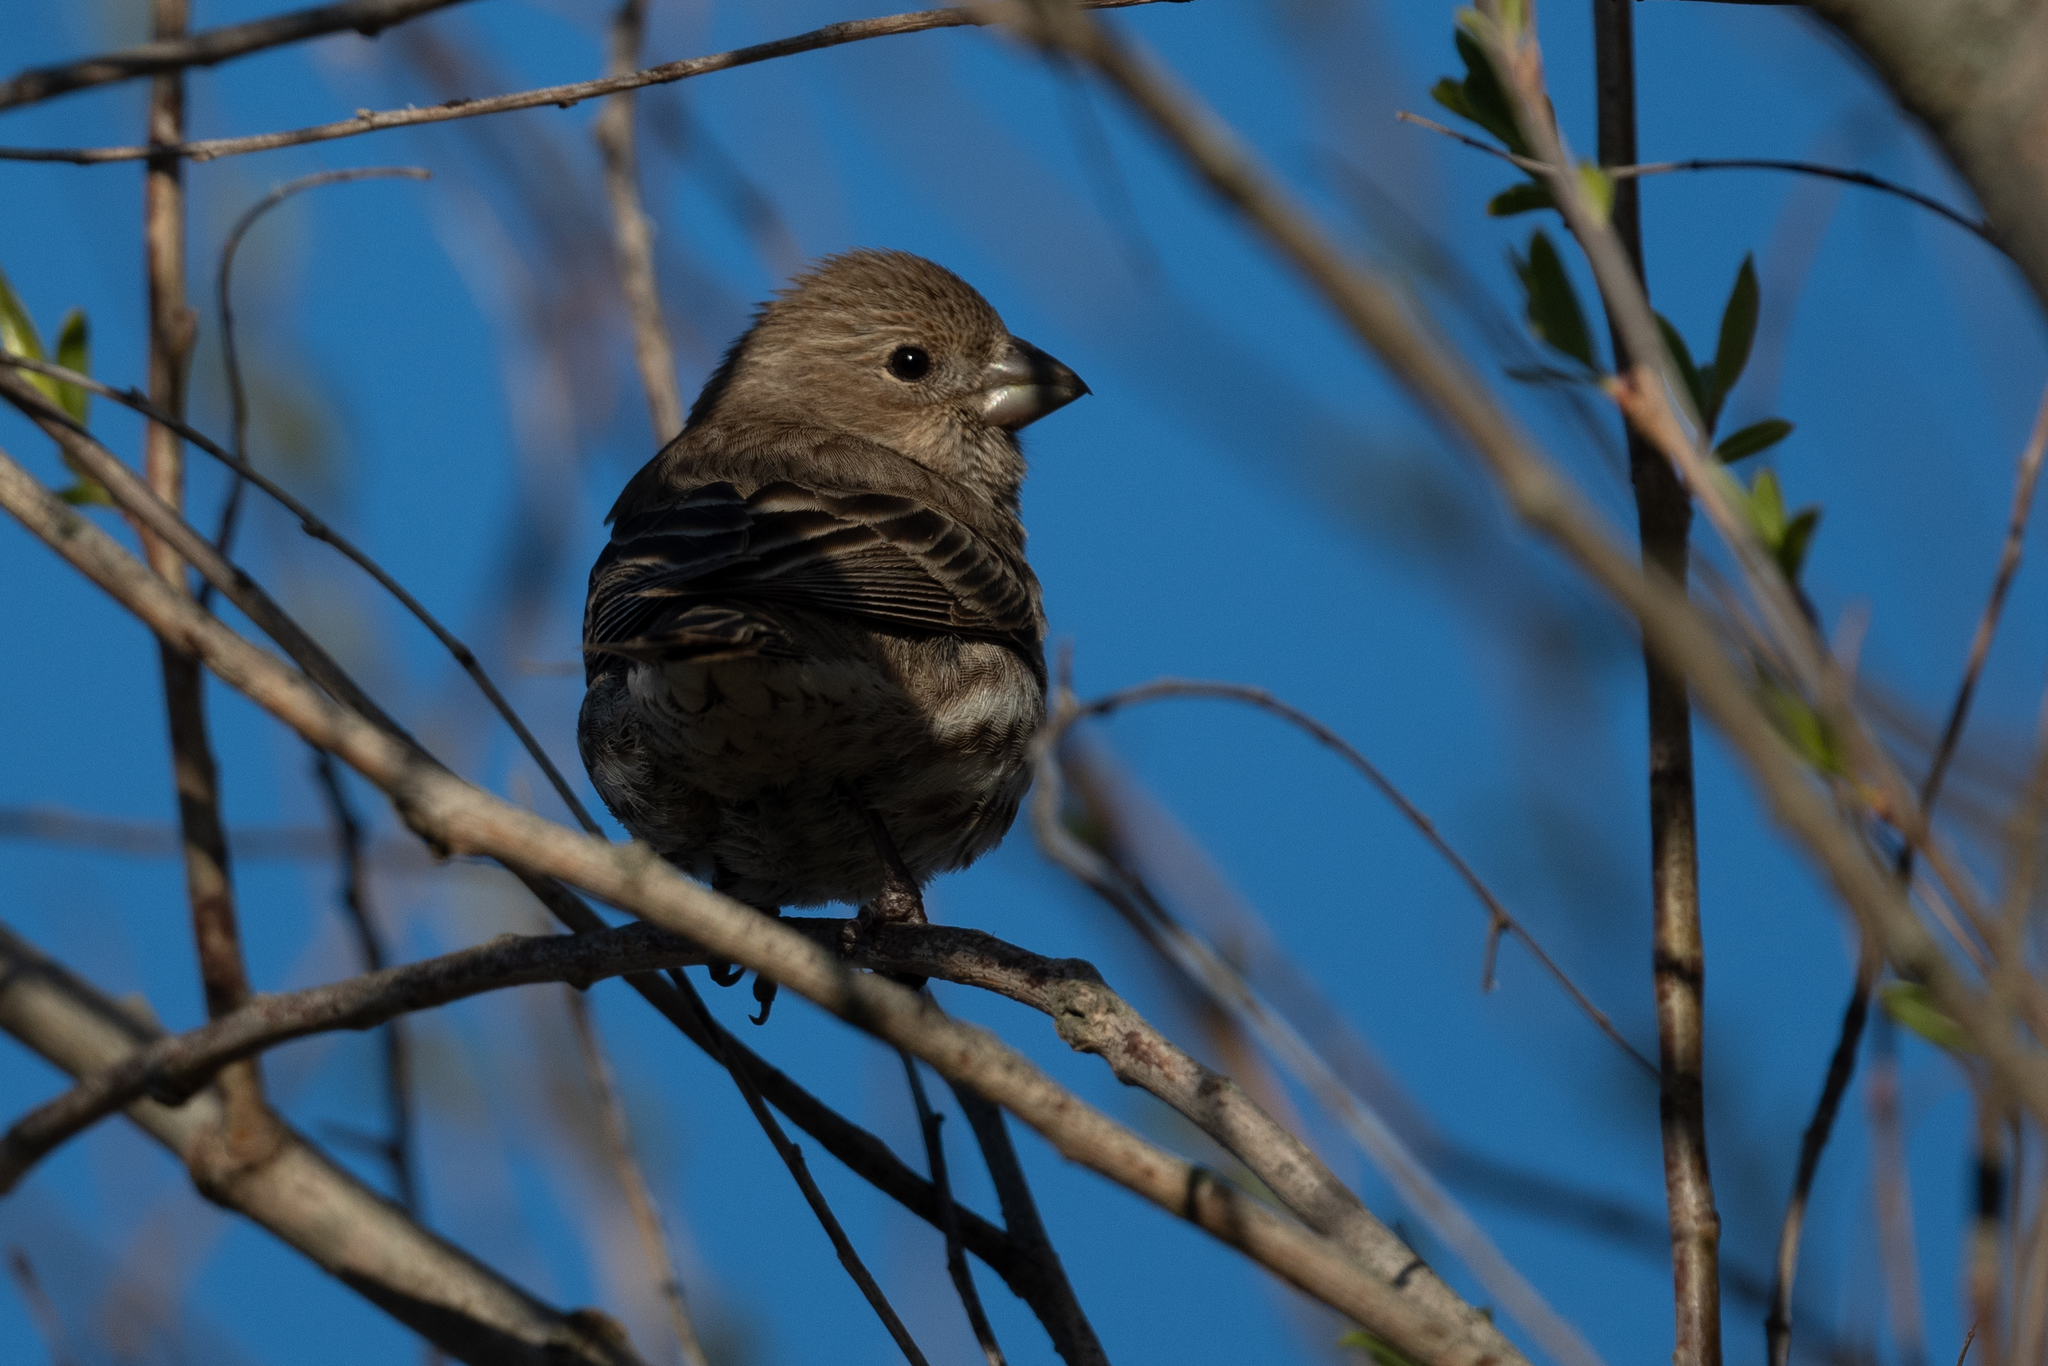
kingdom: Animalia
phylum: Chordata
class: Aves
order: Passeriformes
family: Fringillidae
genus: Haemorhous
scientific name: Haemorhous mexicanus
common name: House finch
